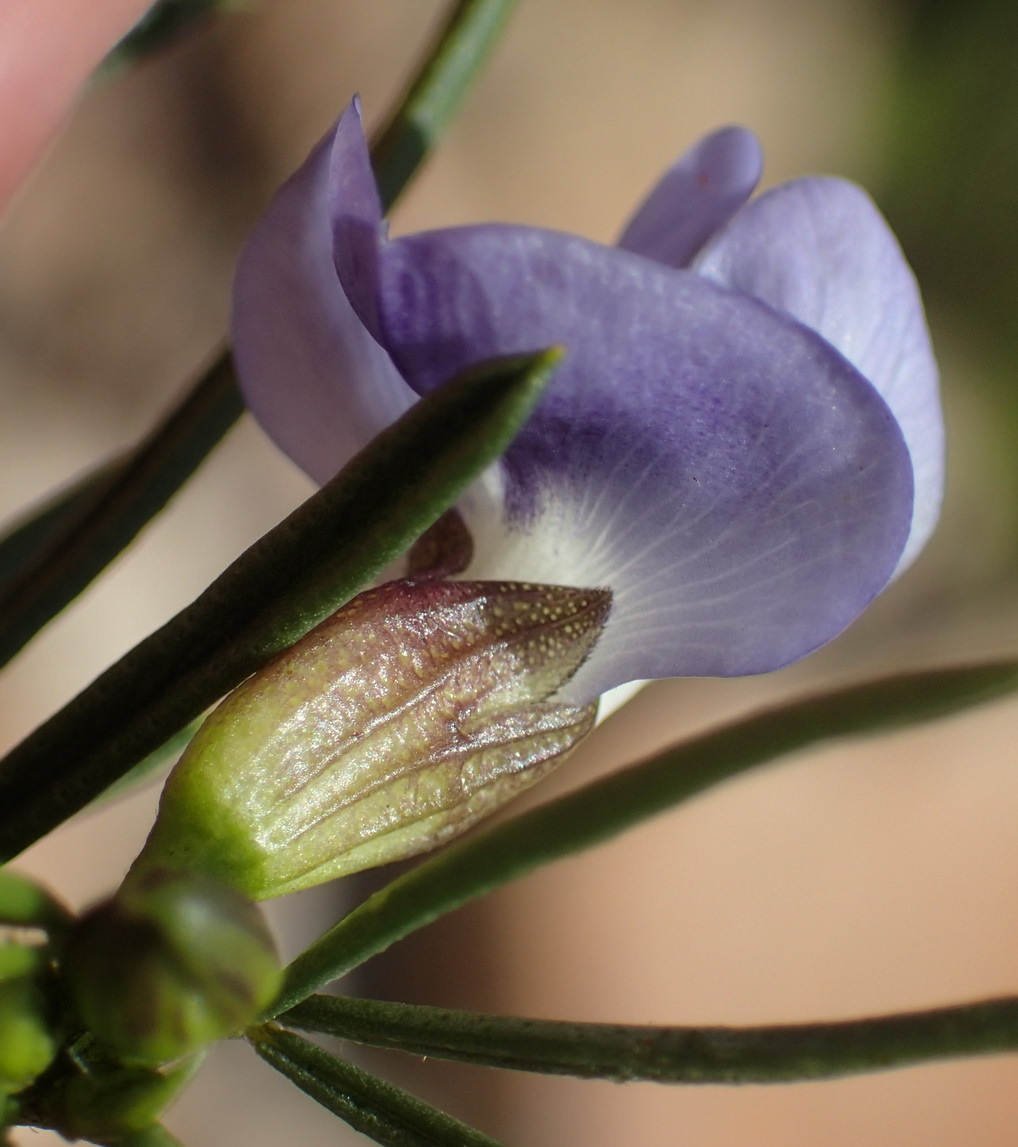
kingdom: Plantae
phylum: Tracheophyta
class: Magnoliopsida
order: Fabales
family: Fabaceae
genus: Psoralea
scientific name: Psoralea sordida
